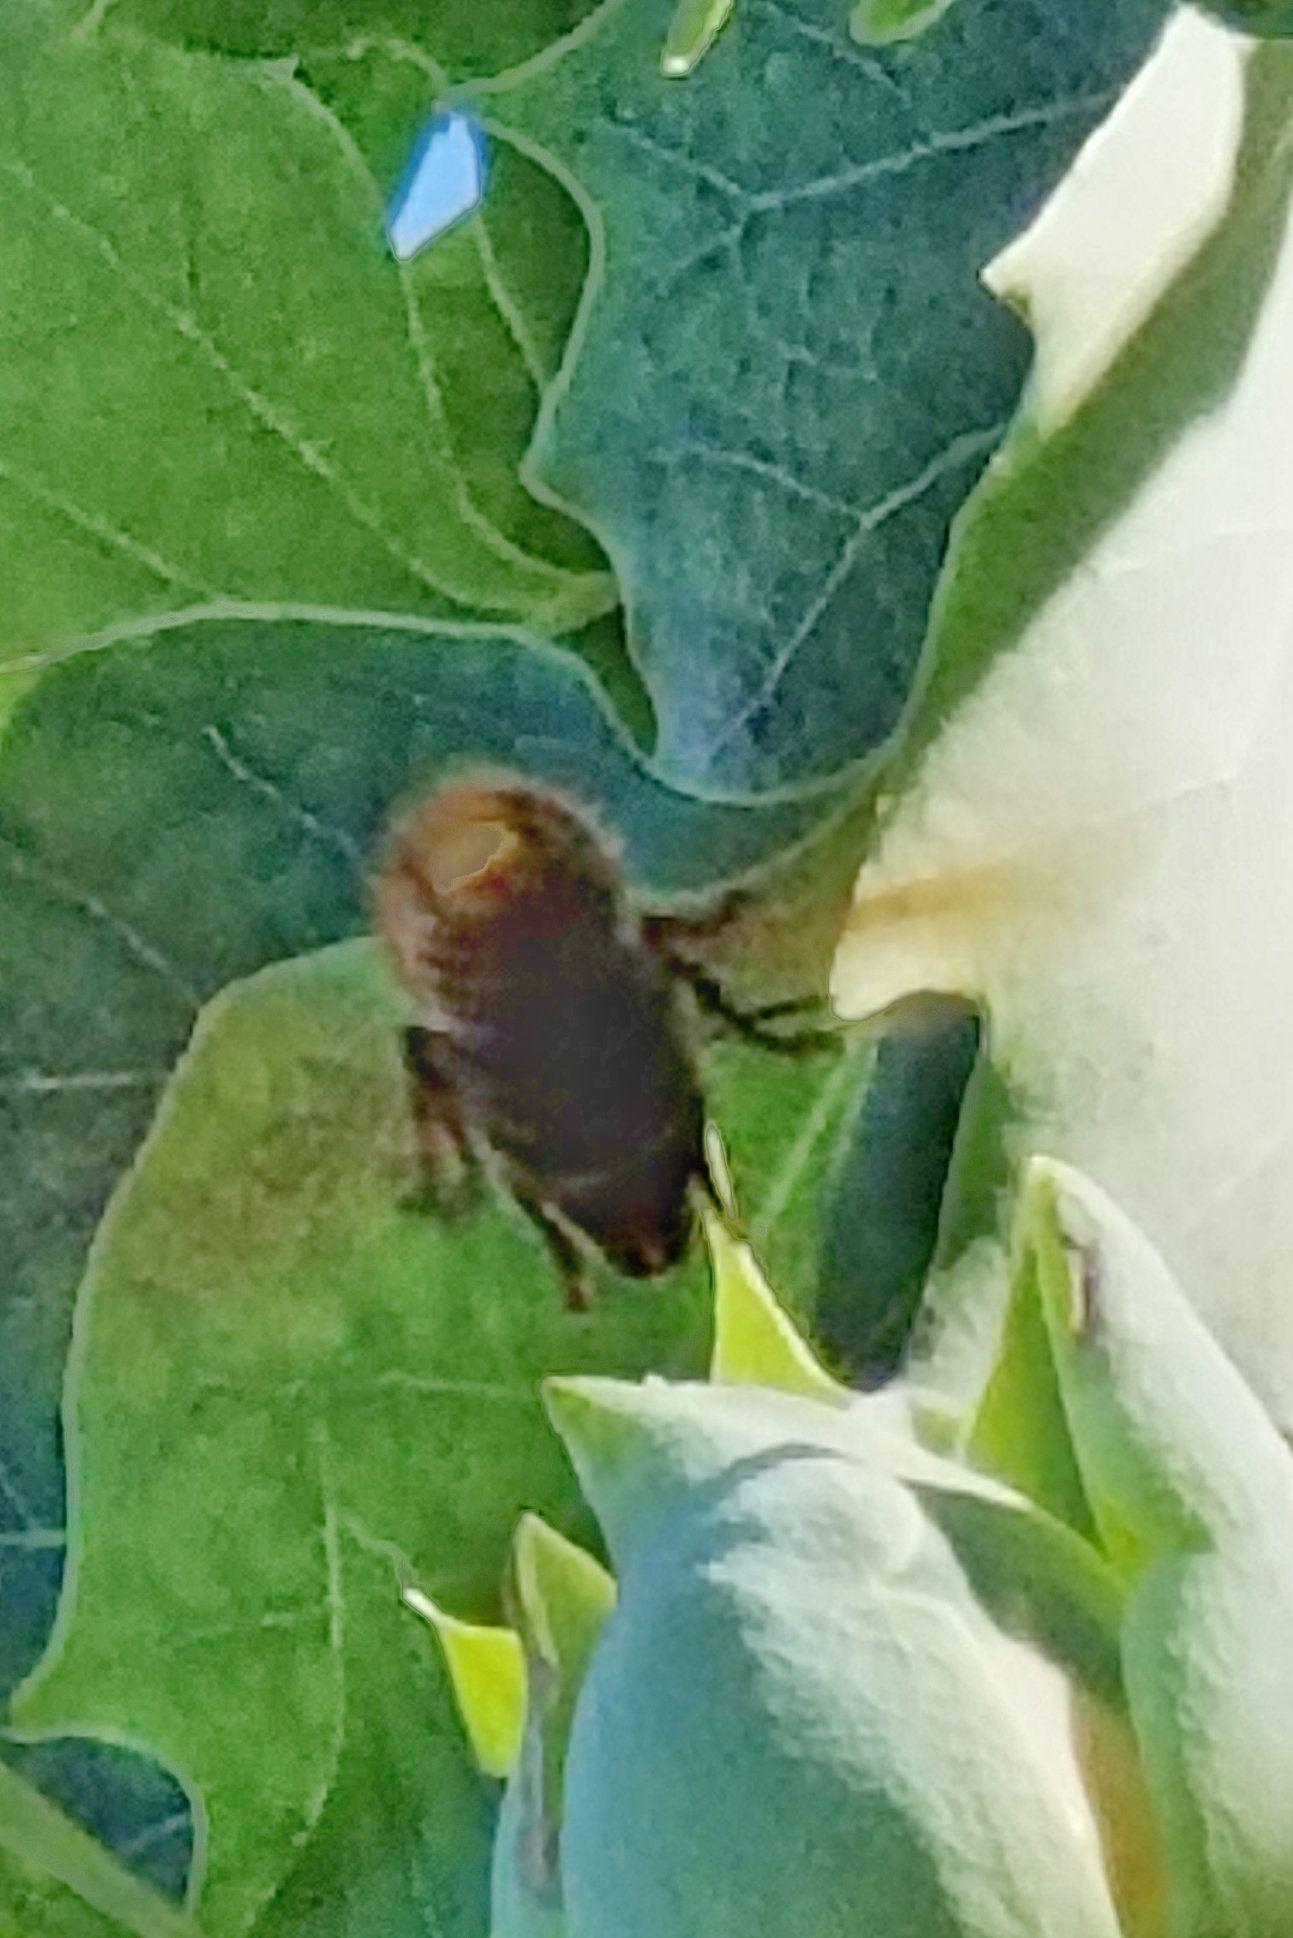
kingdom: Animalia
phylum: Arthropoda
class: Insecta
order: Hymenoptera
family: Vespidae
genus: Vespa
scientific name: Vespa crabro
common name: Hornet
